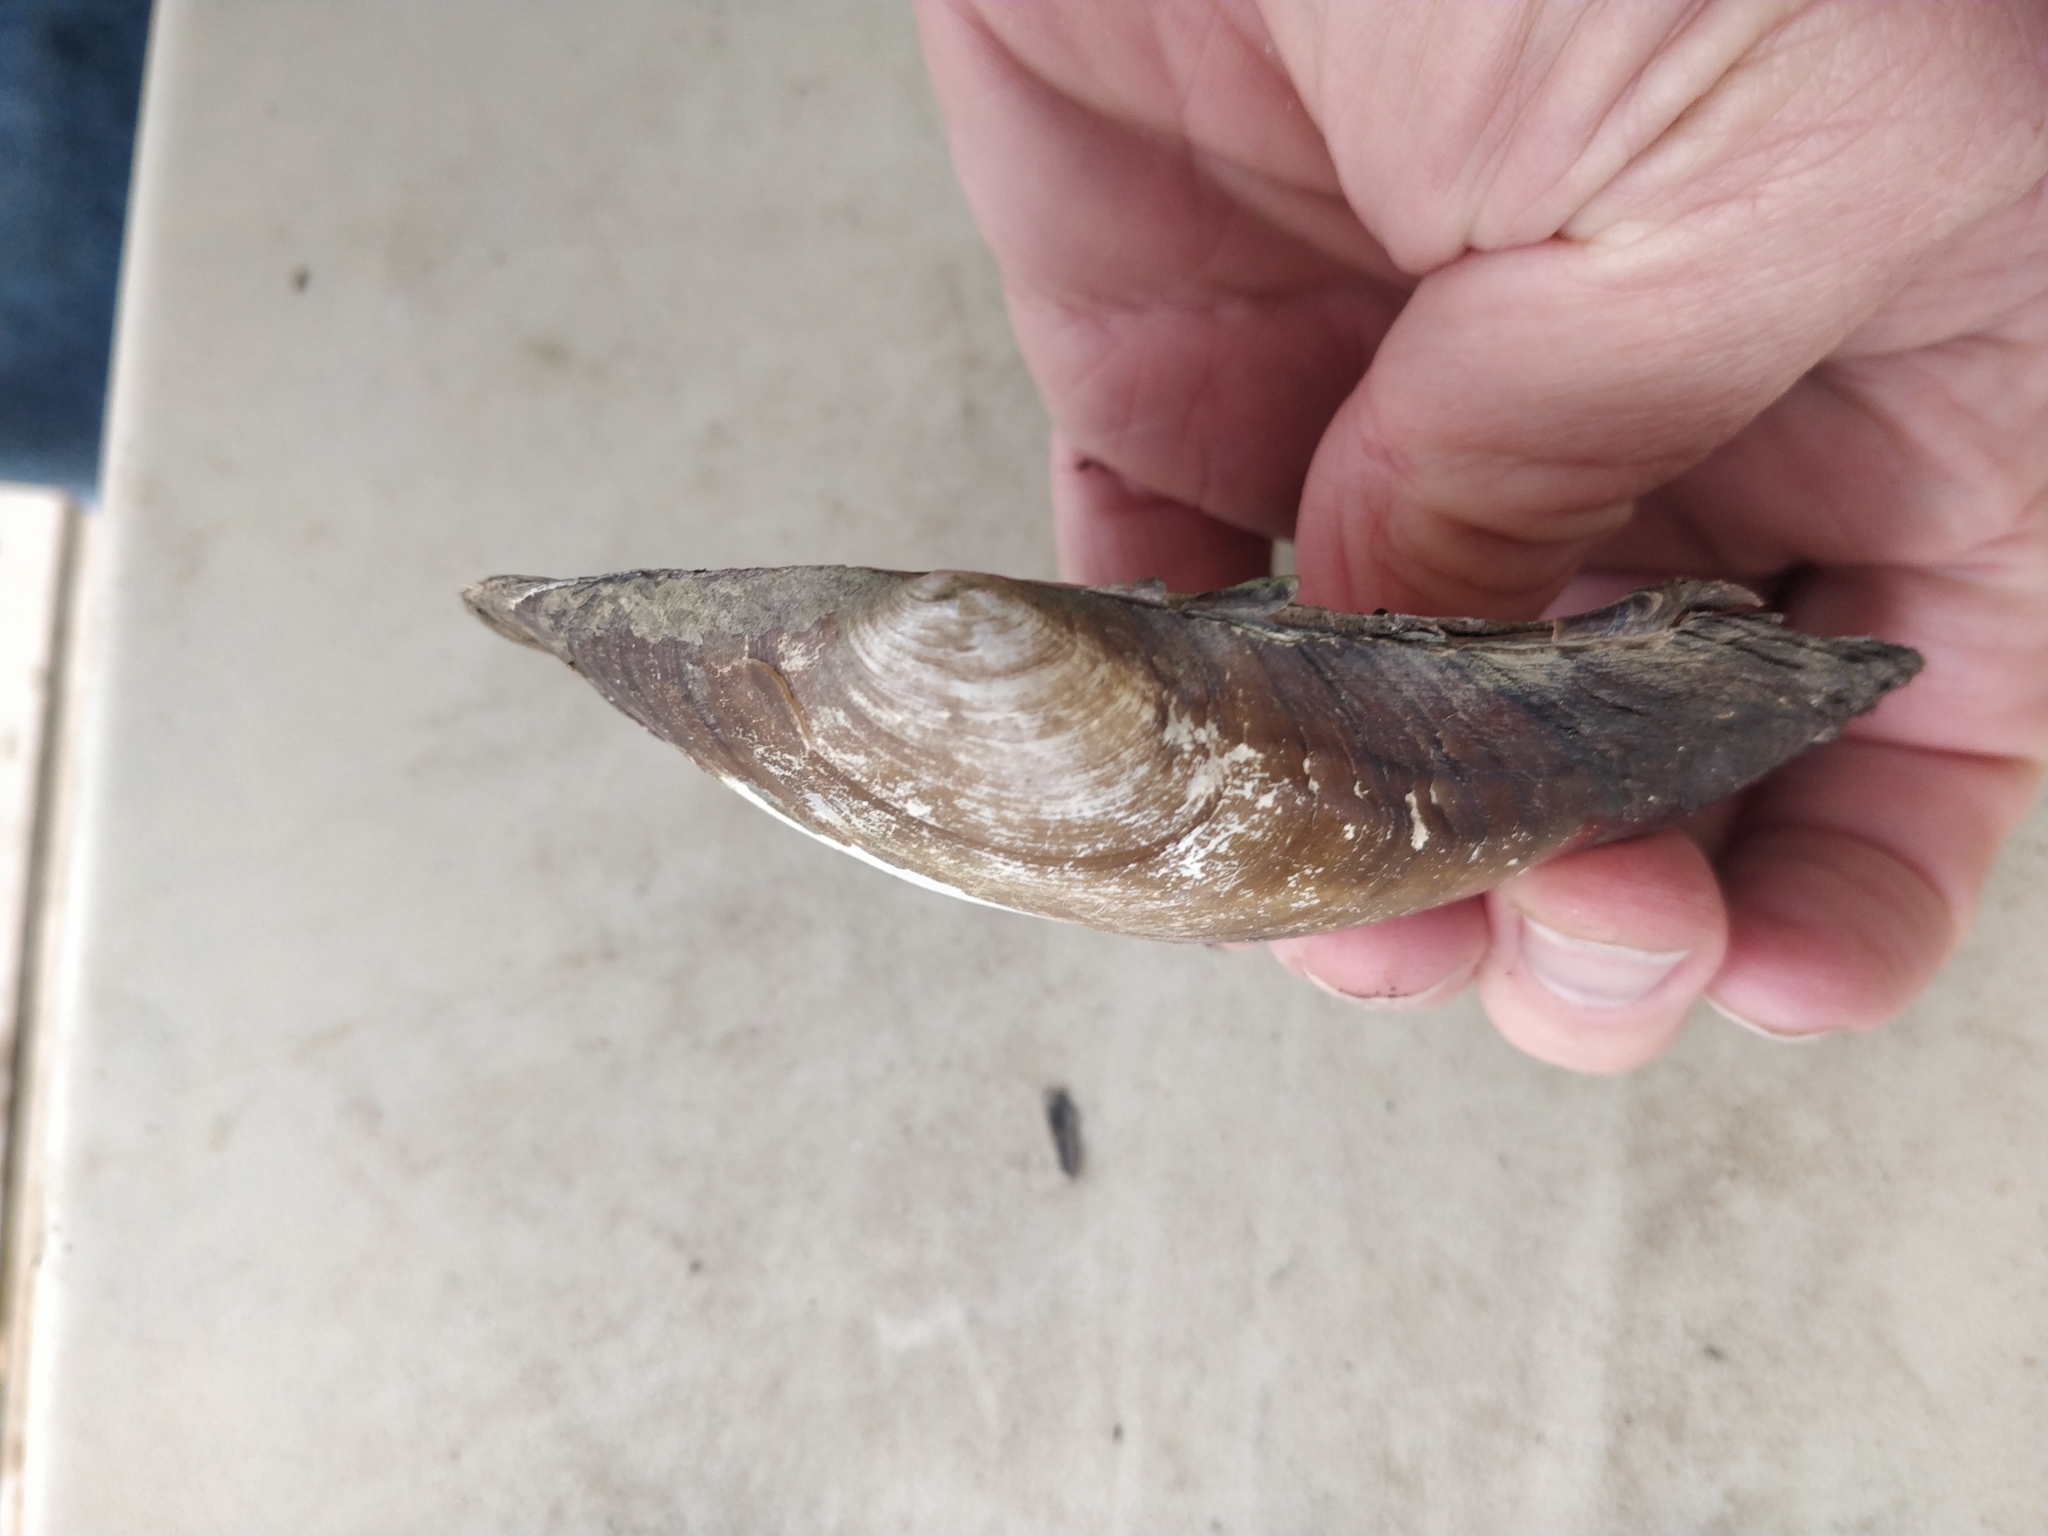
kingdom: Animalia
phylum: Mollusca
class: Bivalvia
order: Unionida
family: Unionidae
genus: Pyganodon
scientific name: Pyganodon grandis
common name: Giant floater
